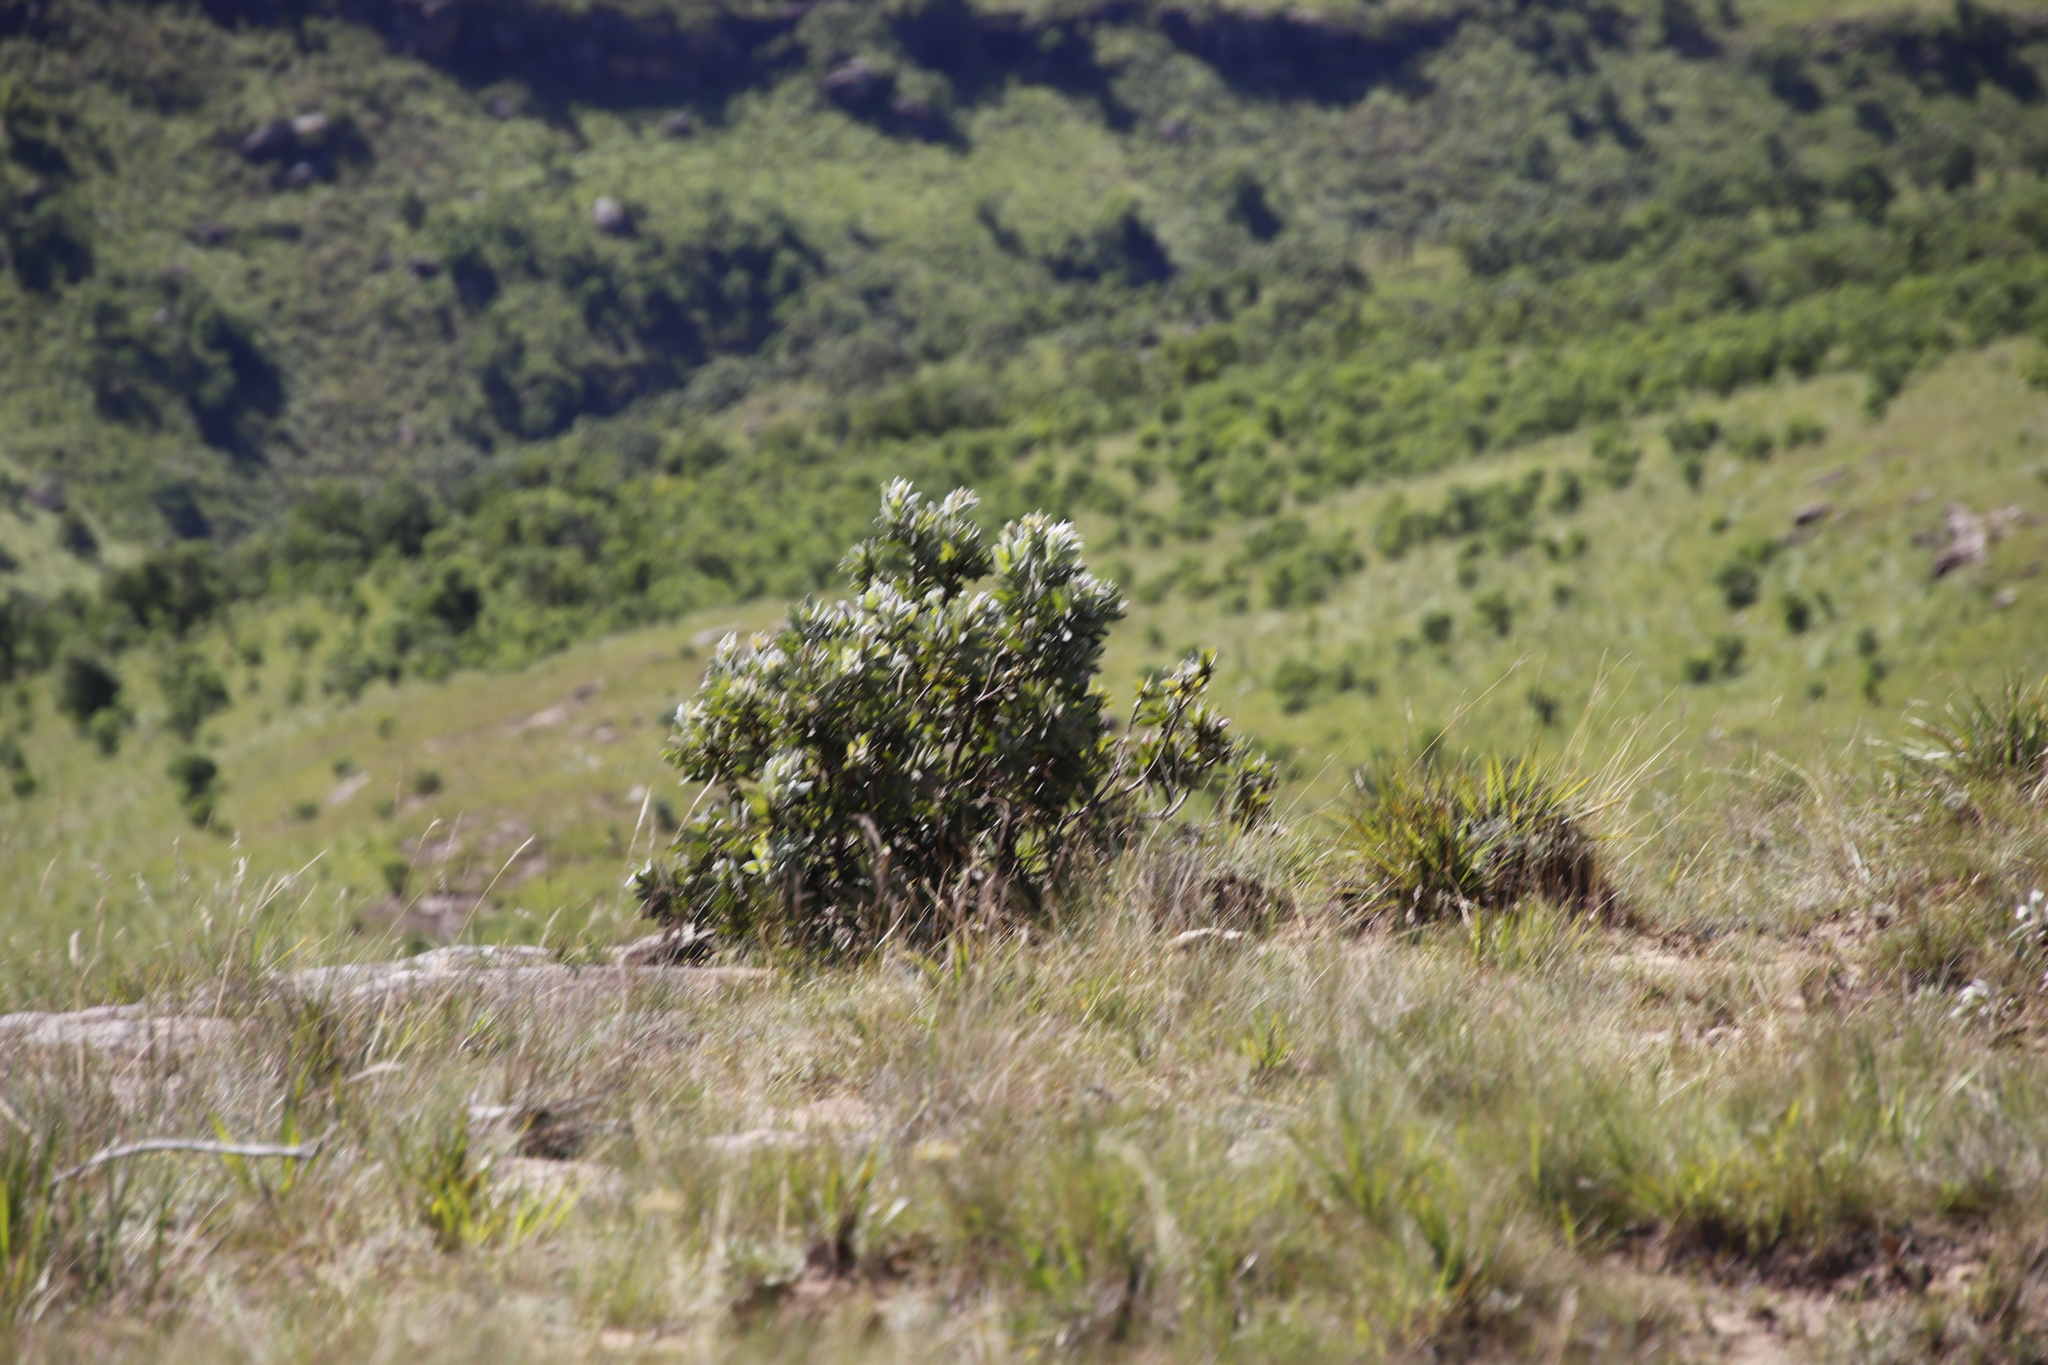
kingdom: Plantae
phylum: Tracheophyta
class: Magnoliopsida
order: Proteales
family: Proteaceae
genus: Protea
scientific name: Protea subvestita
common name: Lip-flower sugarbush
